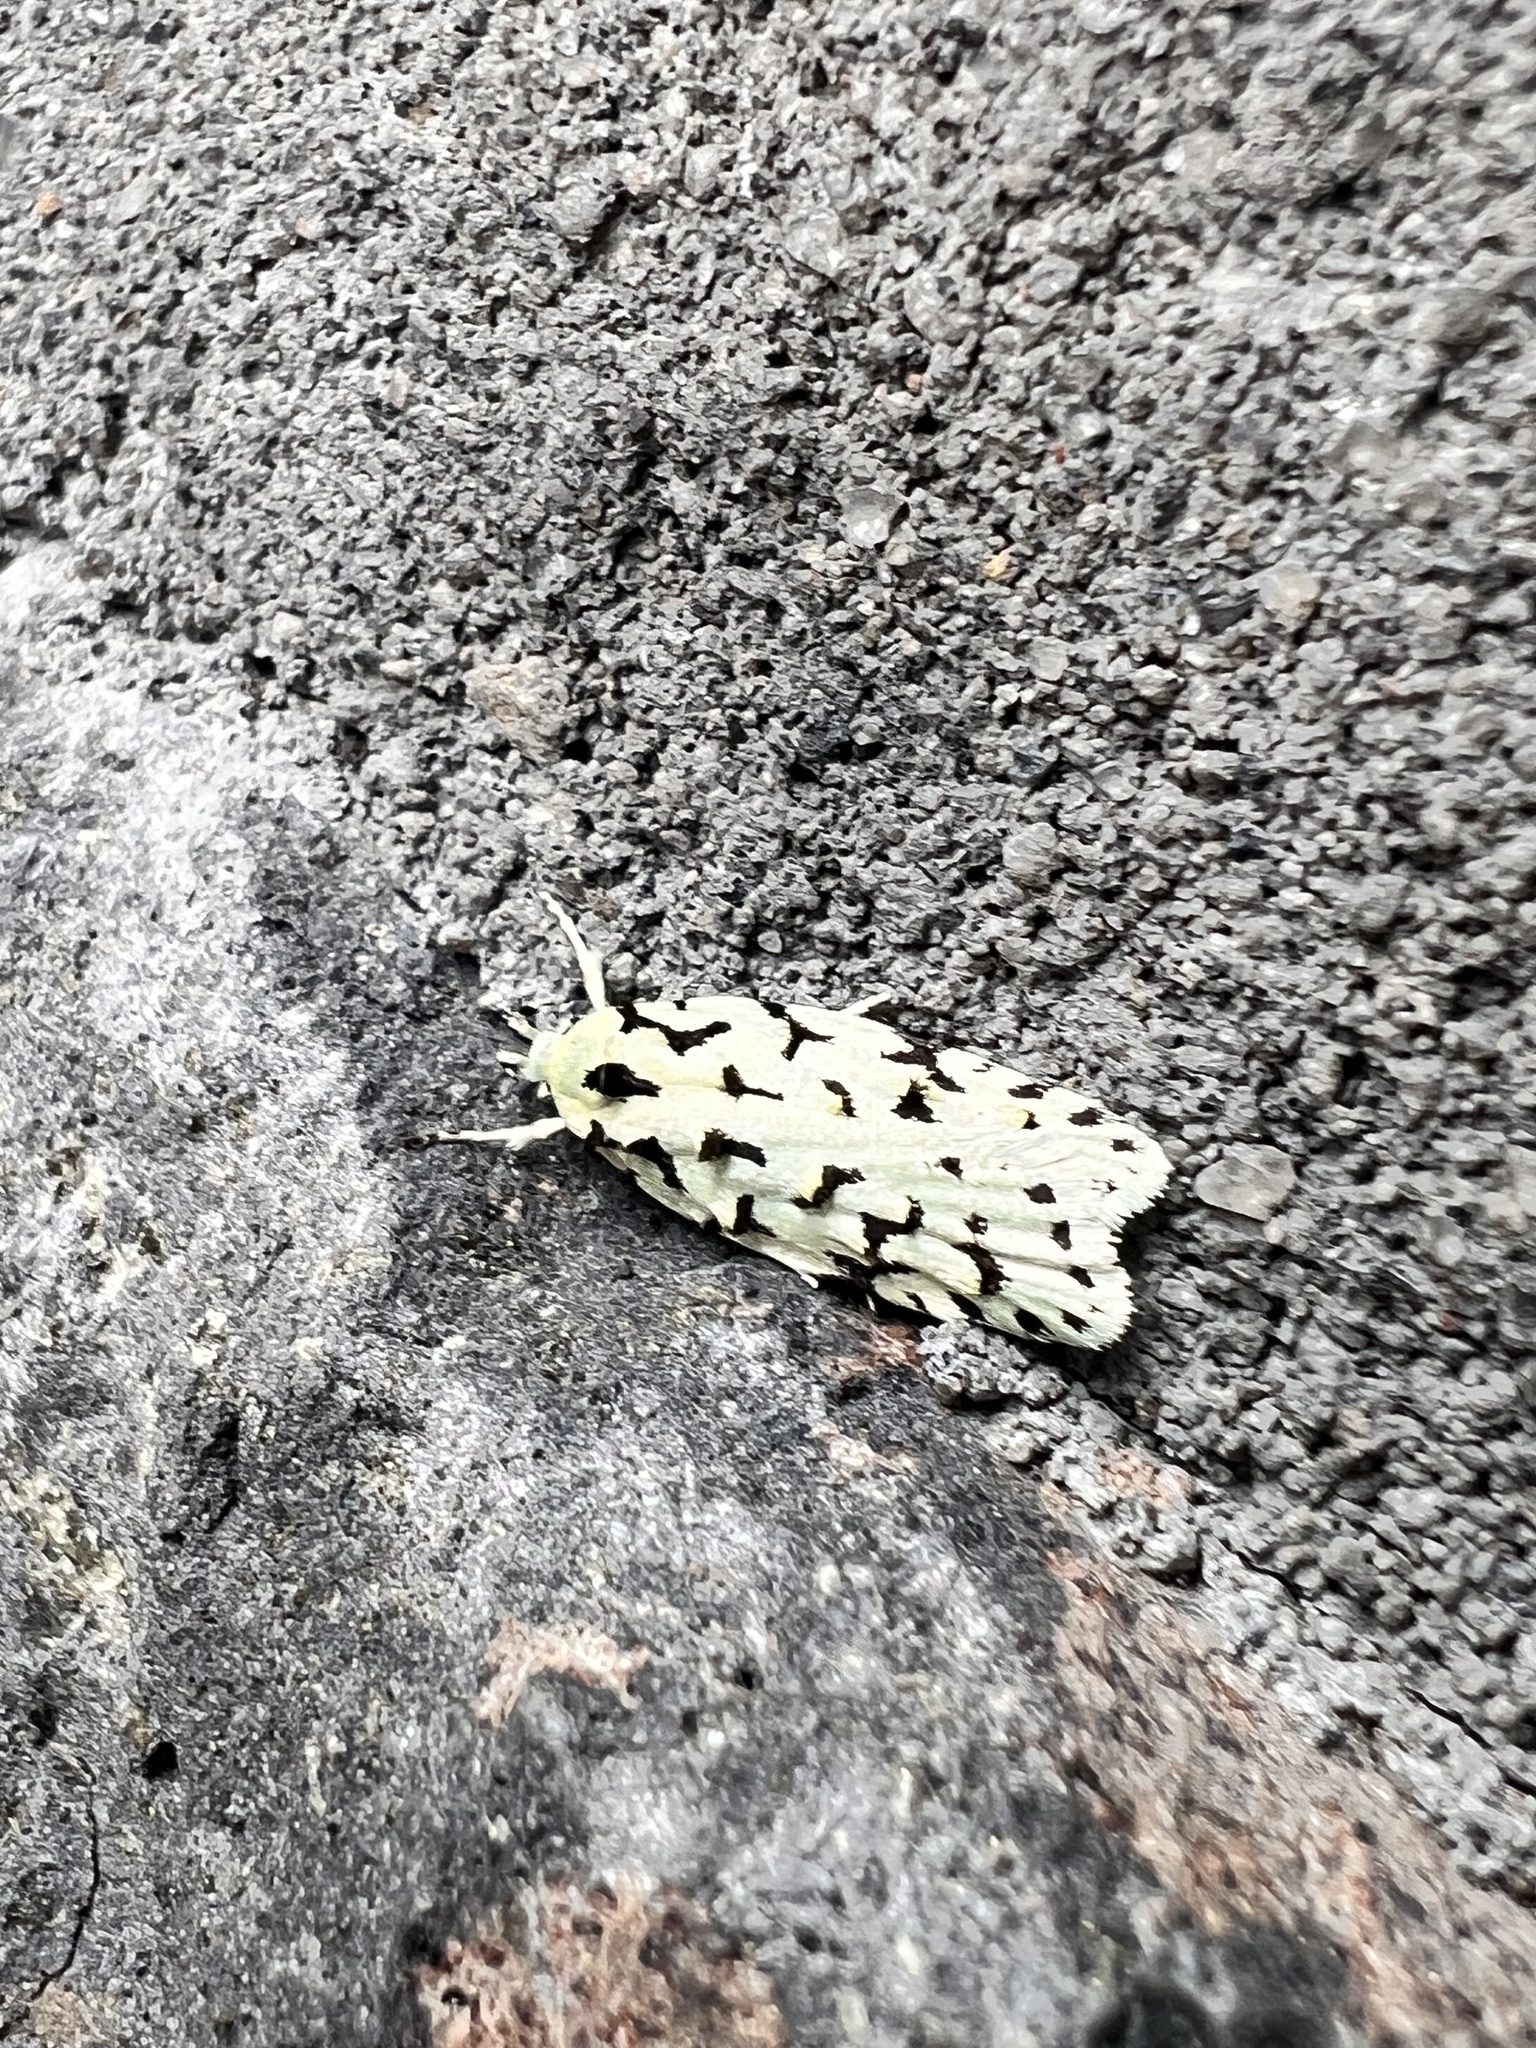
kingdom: Animalia
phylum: Arthropoda
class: Insecta
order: Lepidoptera
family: Oecophoridae
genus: Izatha
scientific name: Izatha peroneanella
